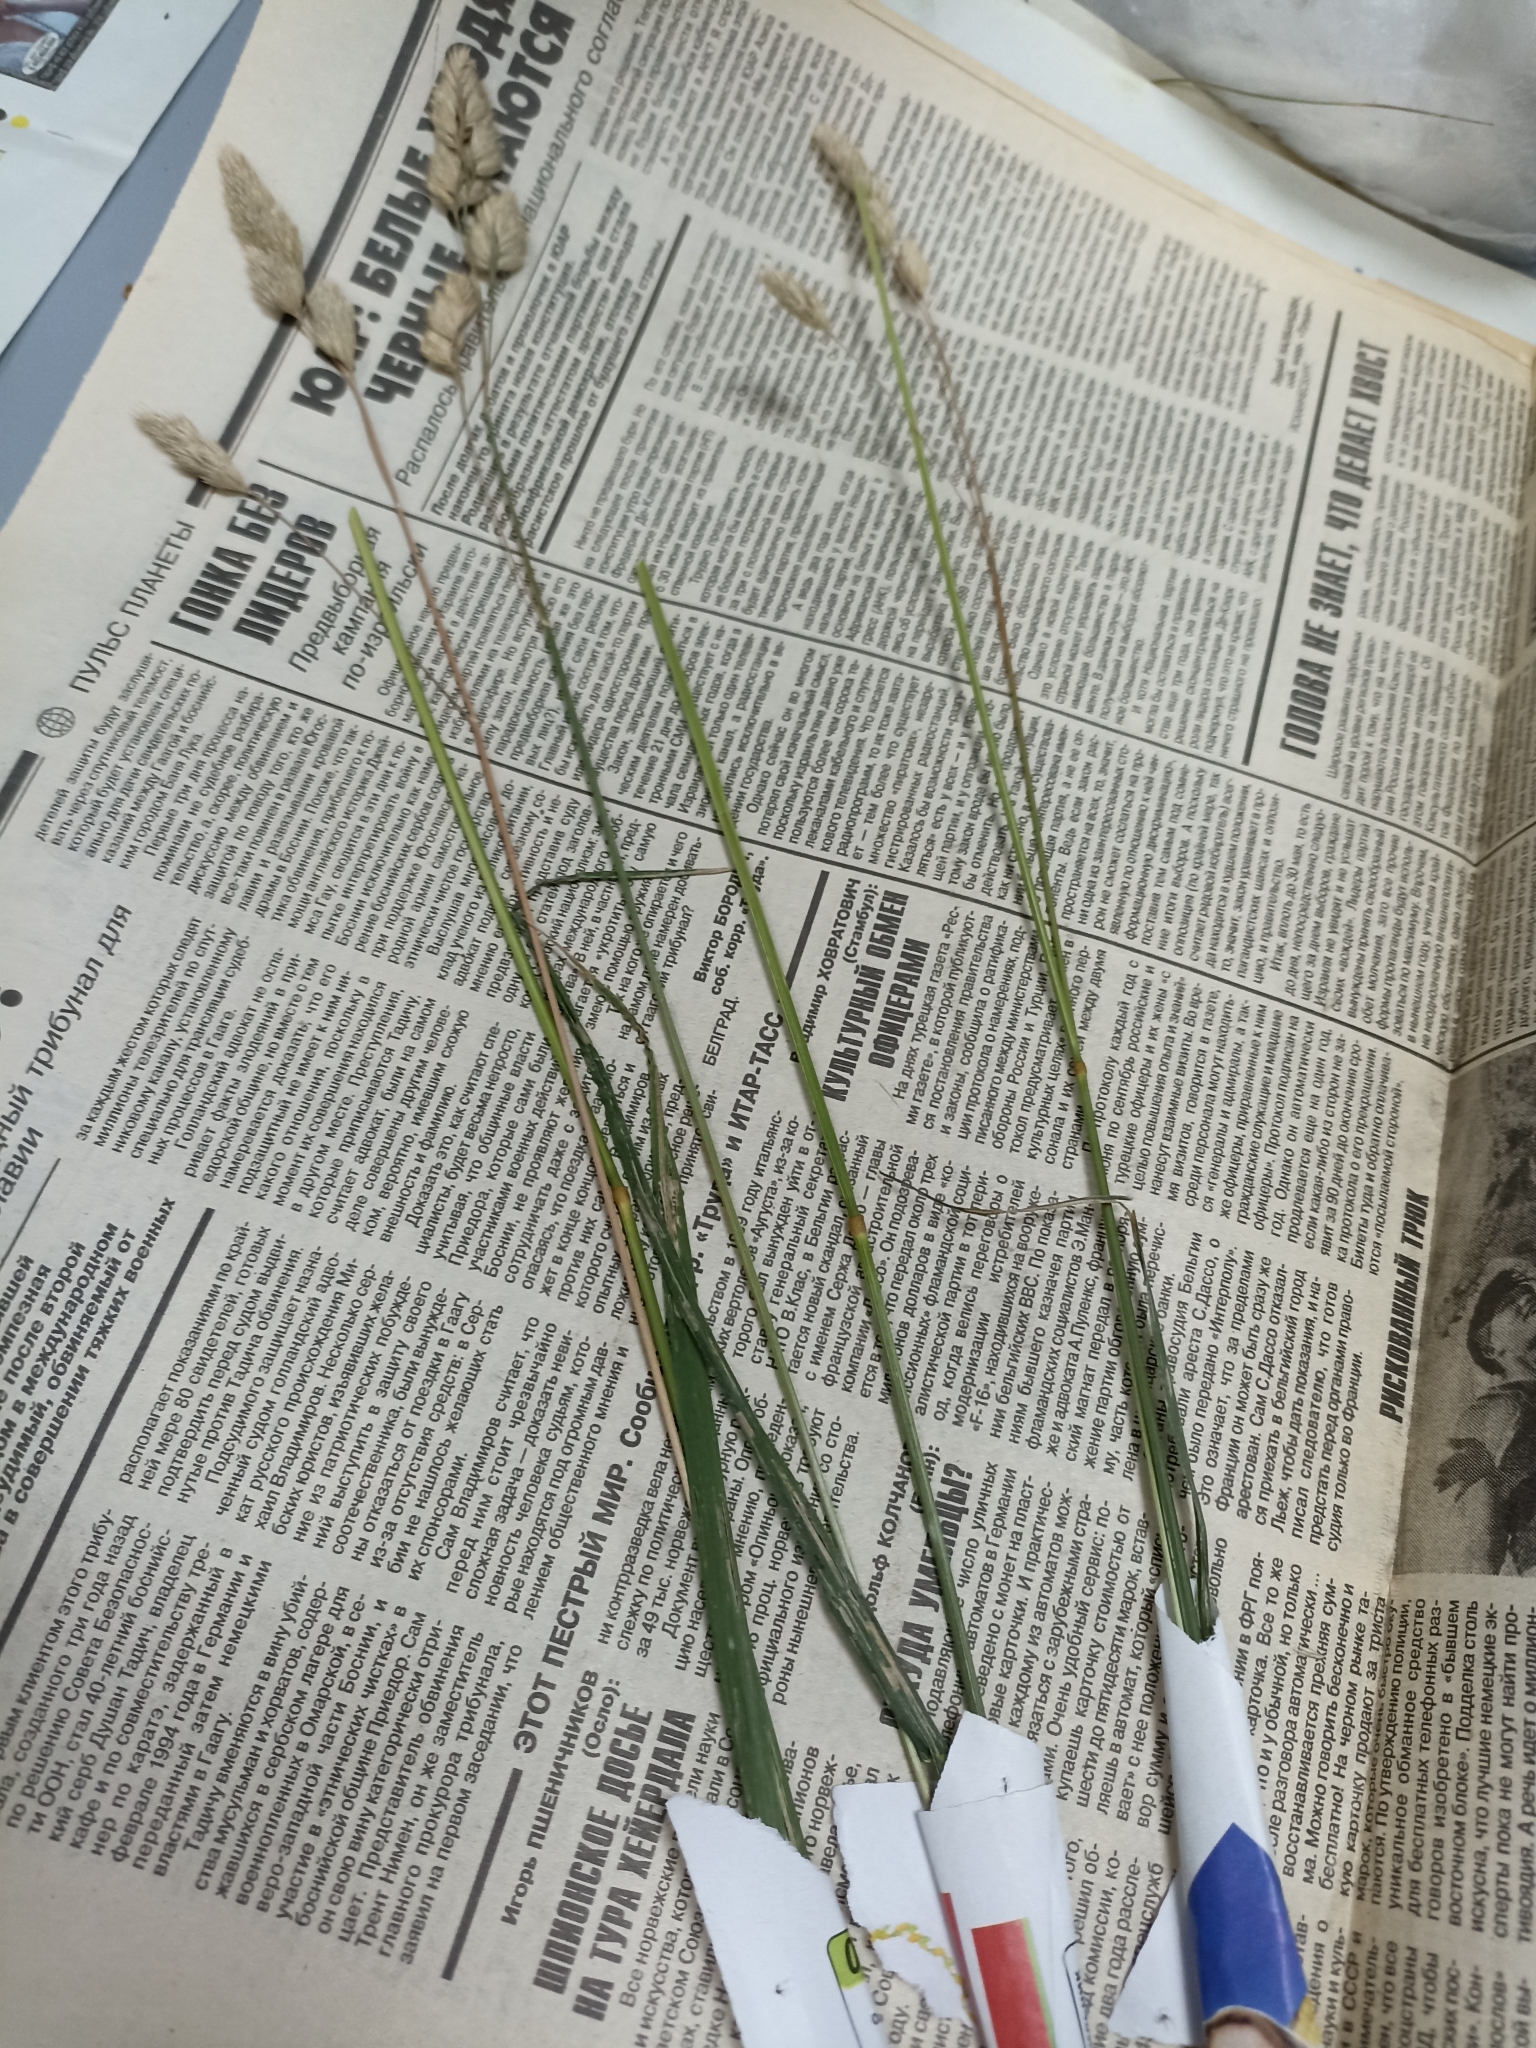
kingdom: Plantae
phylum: Tracheophyta
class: Liliopsida
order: Poales
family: Poaceae
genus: Dactylis
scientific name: Dactylis glomerata
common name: Orchardgrass
